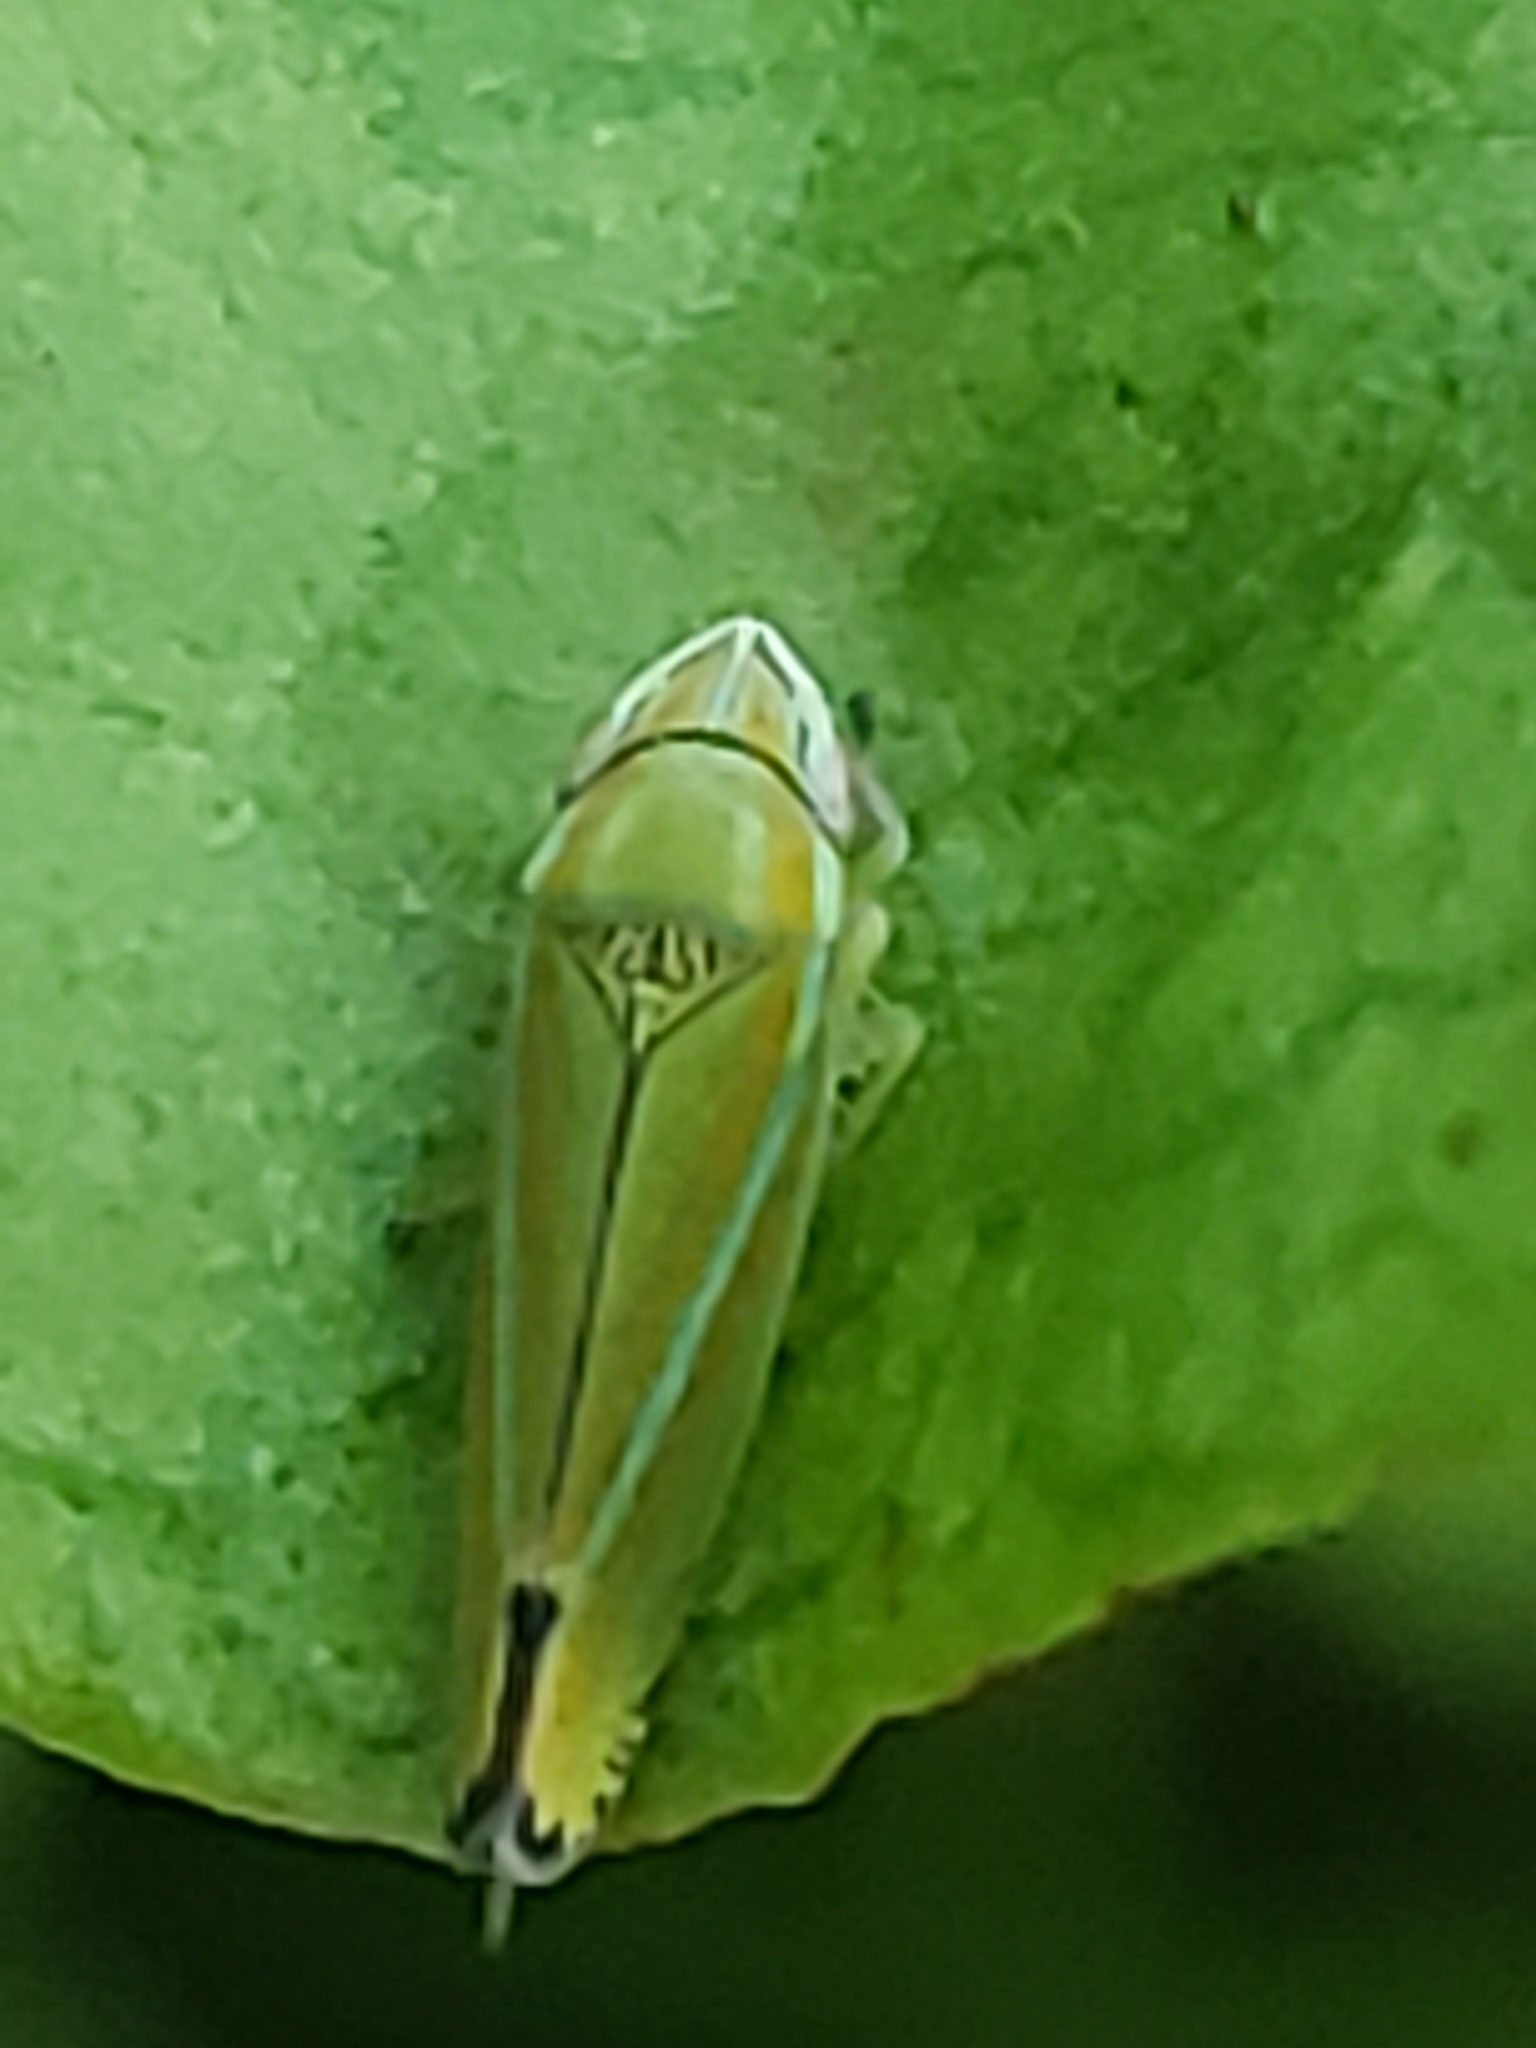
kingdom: Animalia
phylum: Arthropoda
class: Insecta
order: Hemiptera
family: Cicadellidae
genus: Graphocephala
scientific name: Graphocephala versuta
